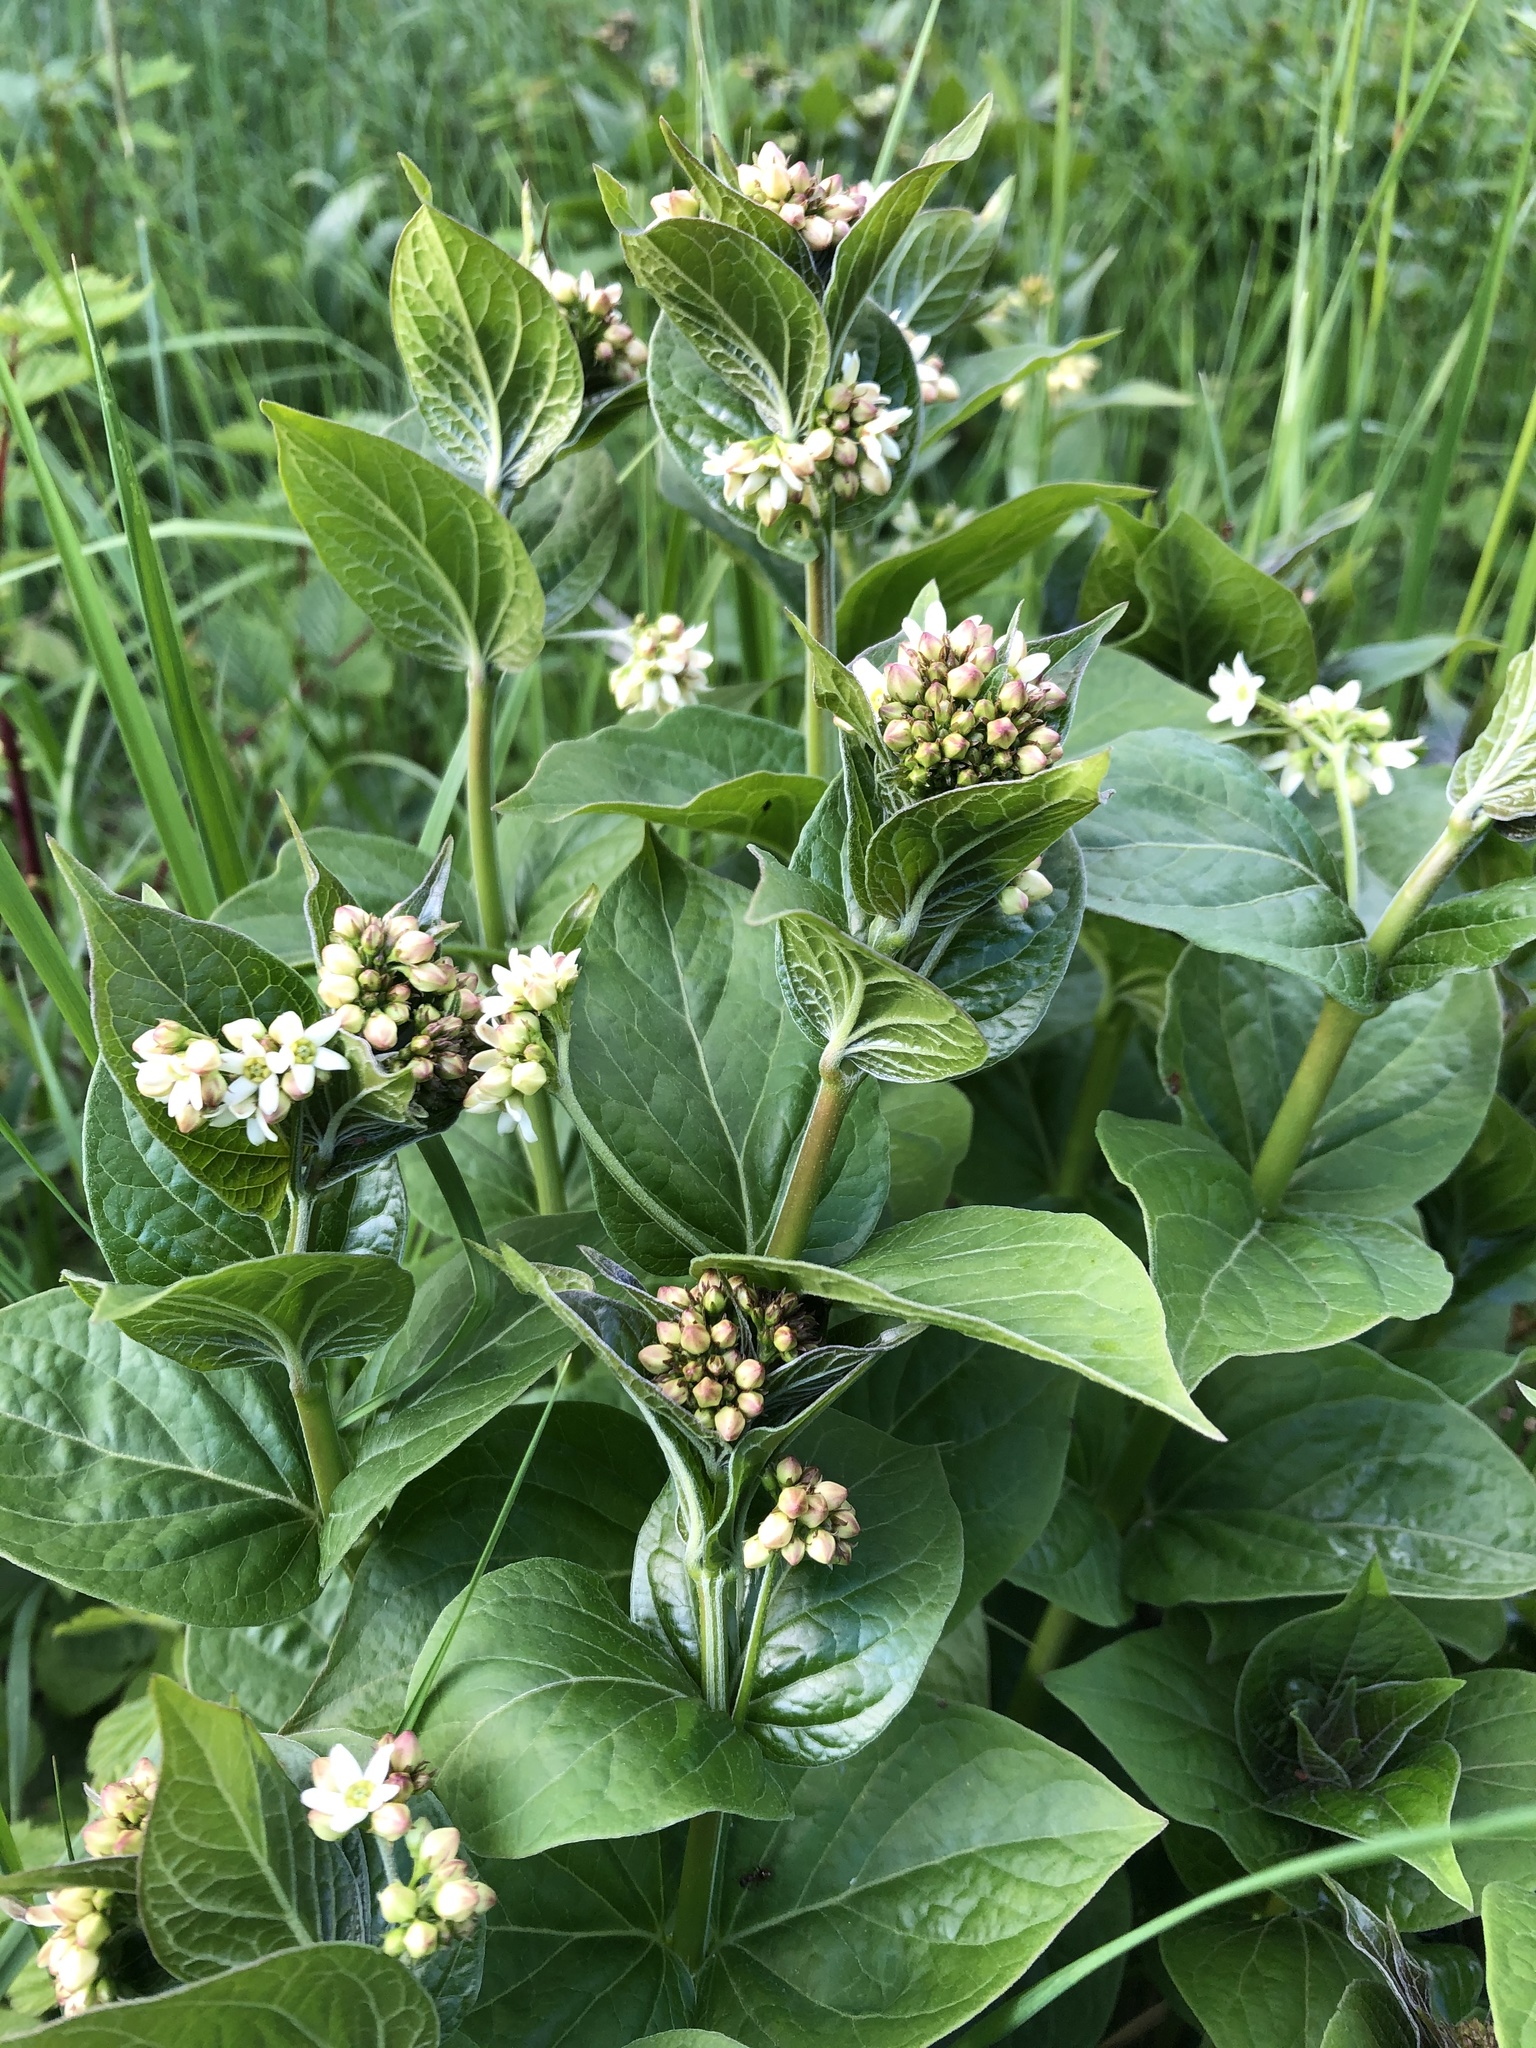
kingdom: Plantae
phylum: Tracheophyta
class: Magnoliopsida
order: Gentianales
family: Apocynaceae
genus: Vincetoxicum
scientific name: Vincetoxicum hirundinaria
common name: White swallowwort
